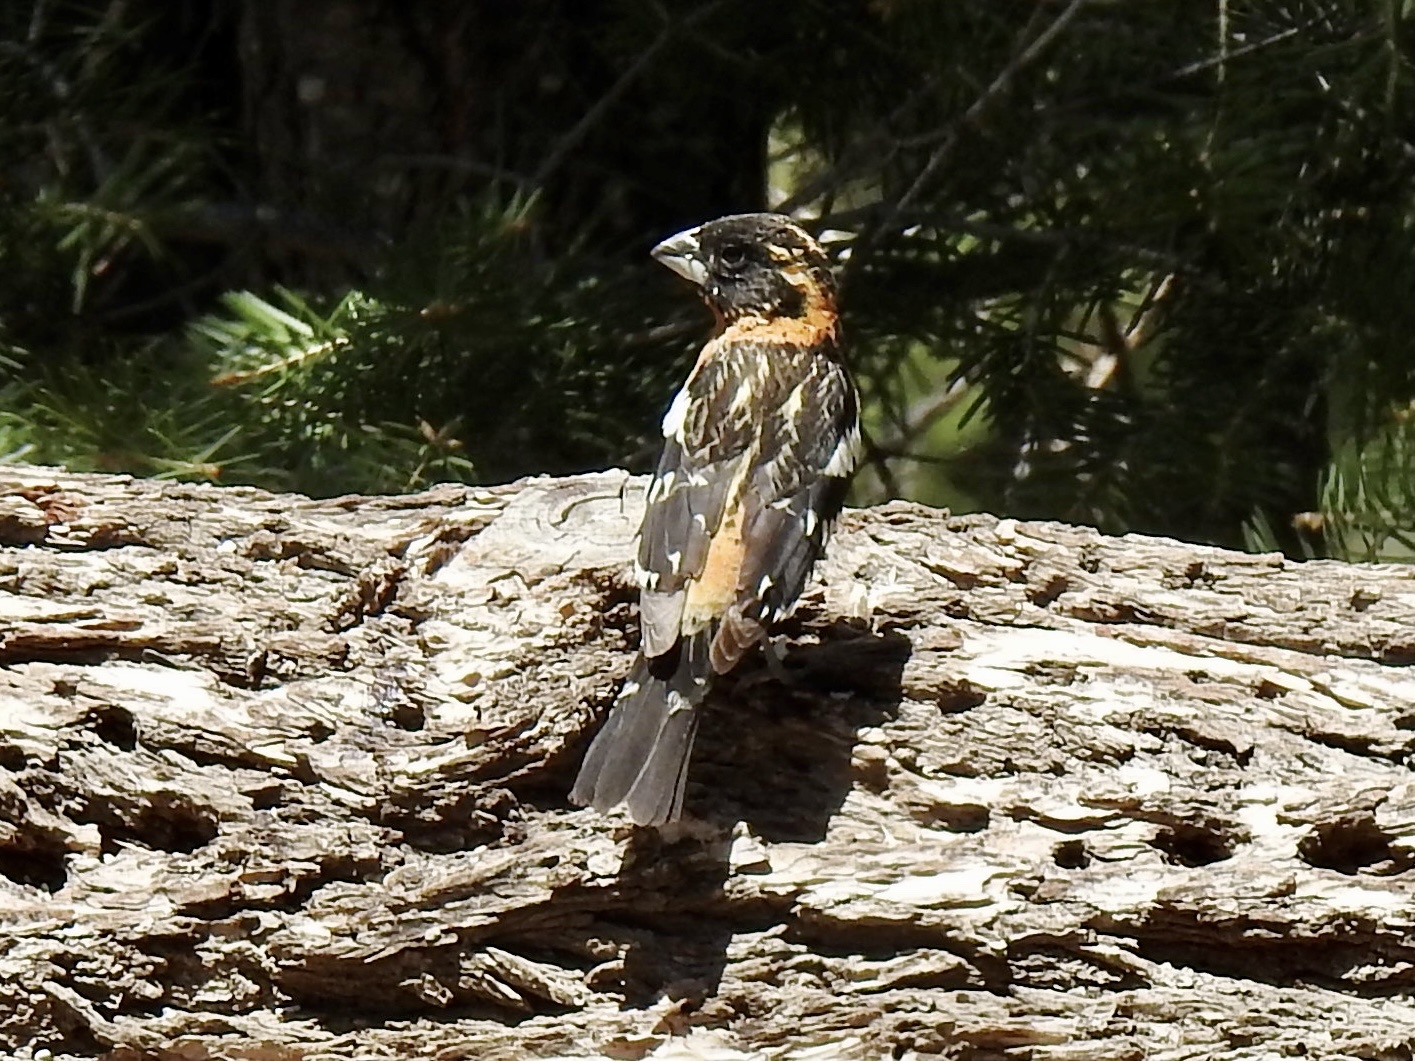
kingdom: Animalia
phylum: Chordata
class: Aves
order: Passeriformes
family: Cardinalidae
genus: Pheucticus
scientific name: Pheucticus melanocephalus
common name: Black-headed grosbeak
